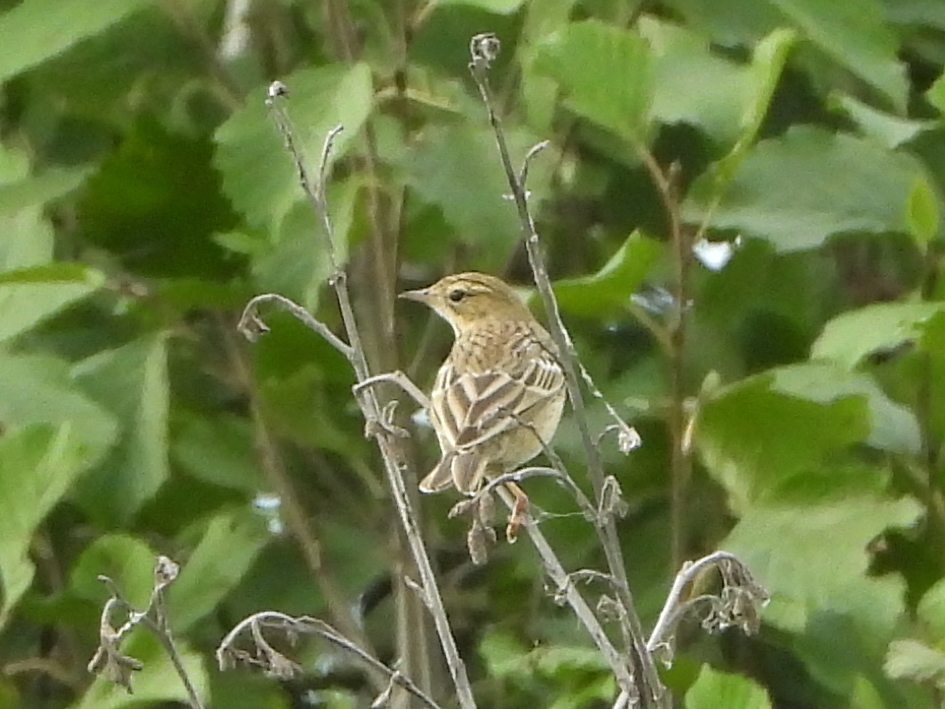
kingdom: Animalia
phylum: Chordata
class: Aves
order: Passeriformes
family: Motacillidae
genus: Anthus
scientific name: Anthus trivialis
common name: Tree pipit
